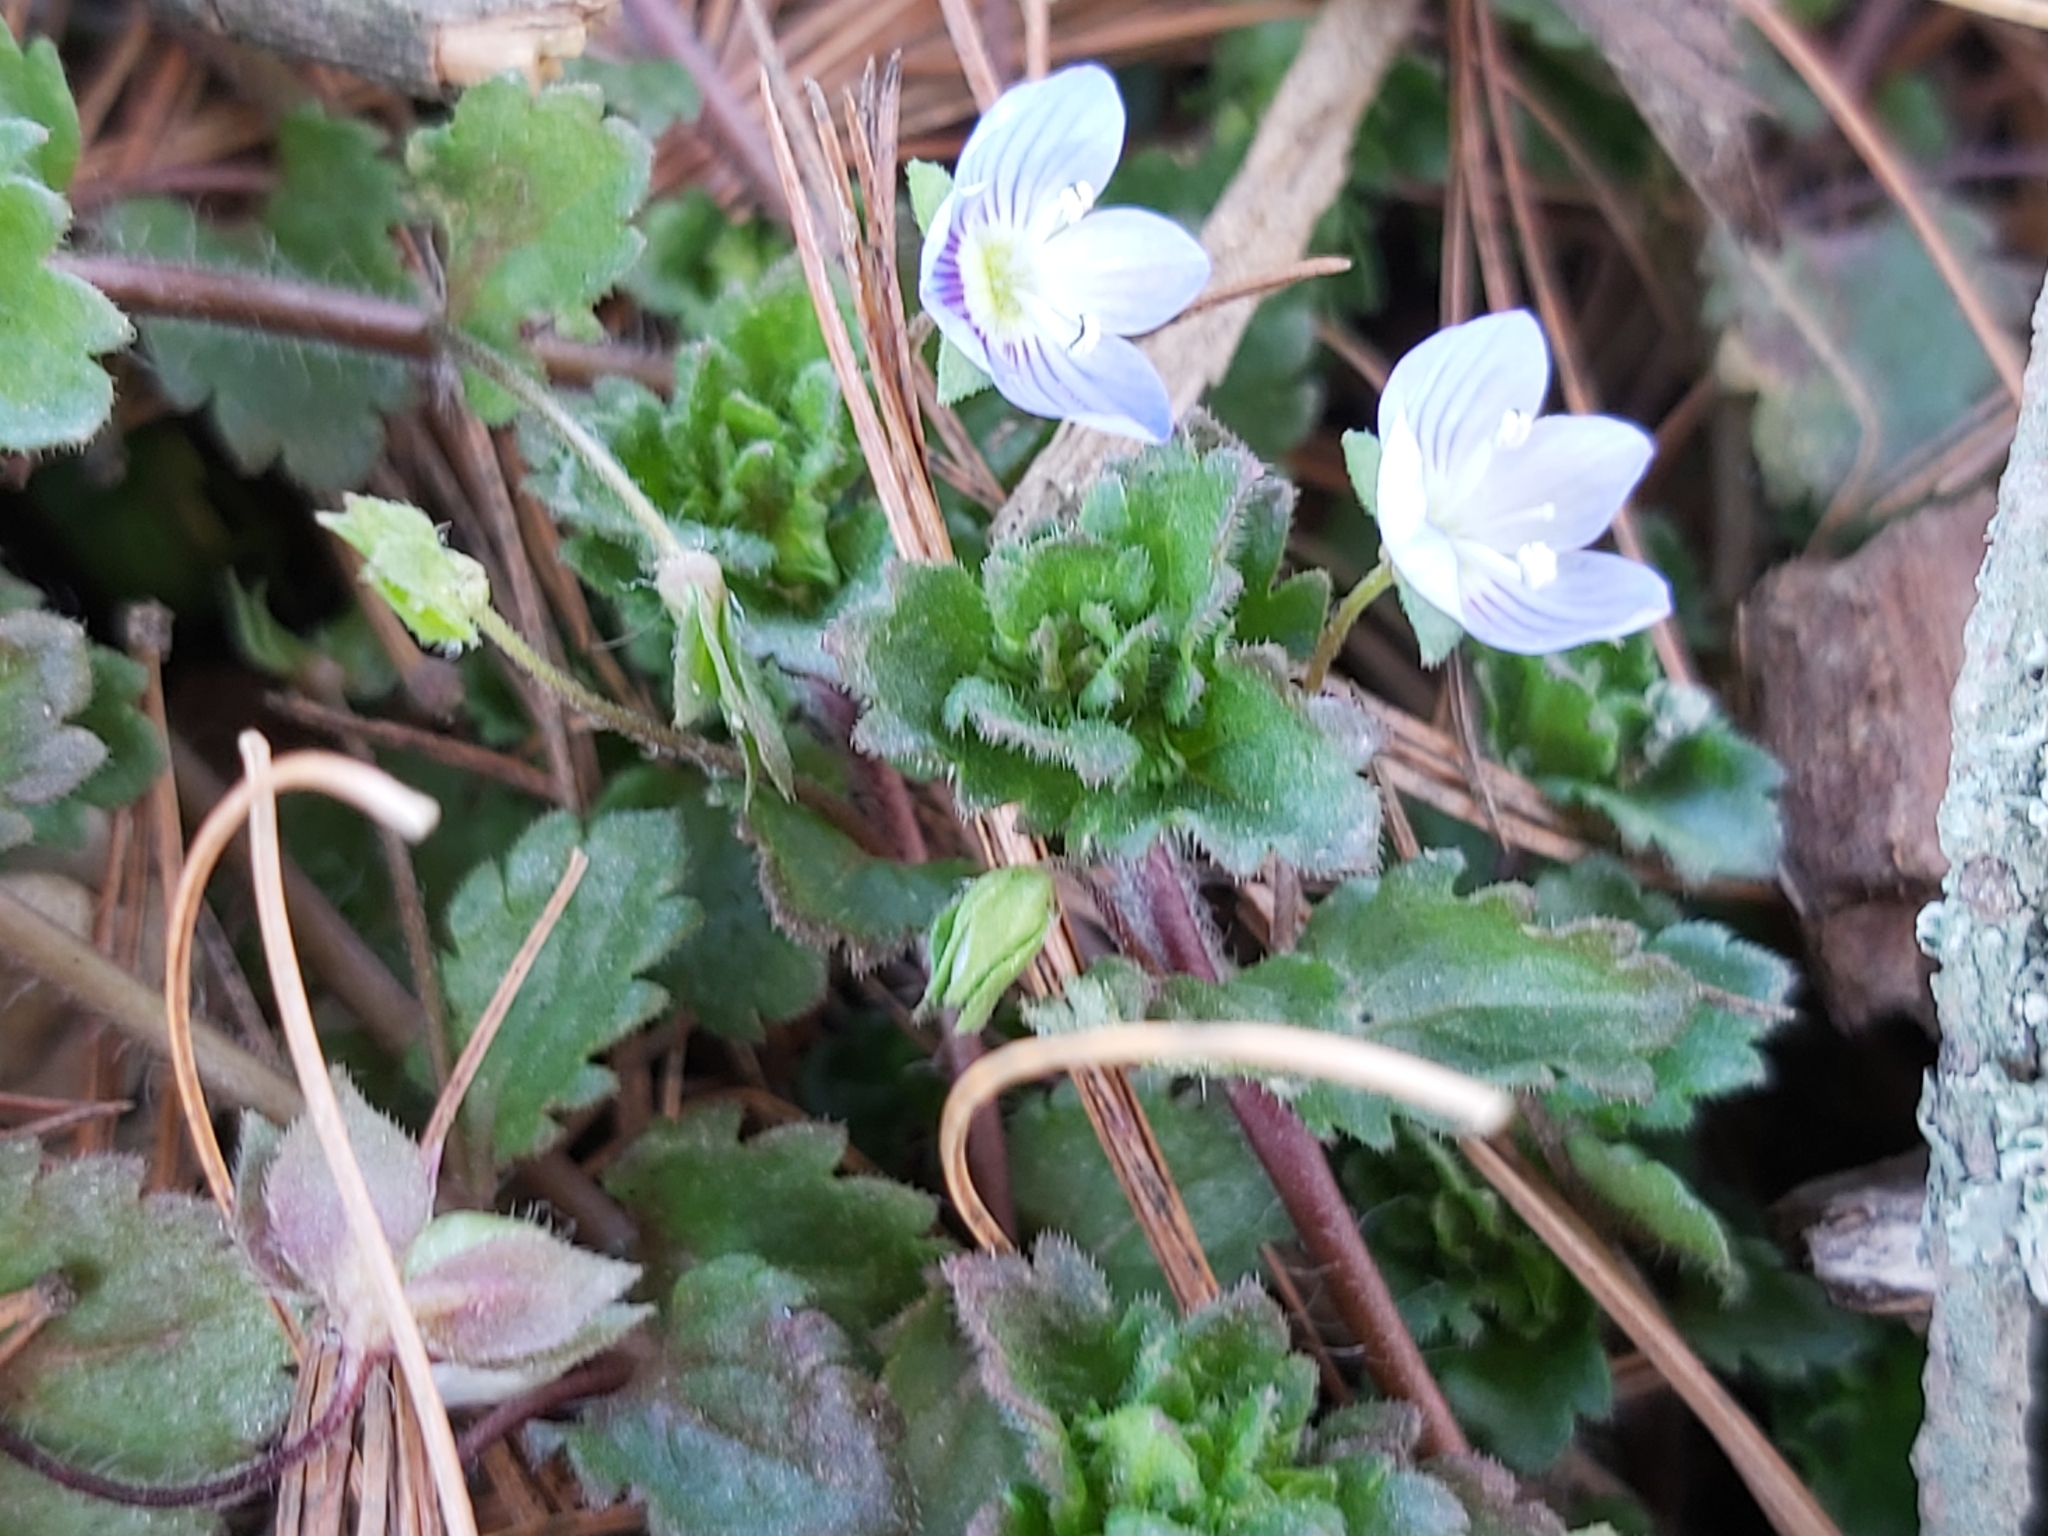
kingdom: Plantae
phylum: Tracheophyta
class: Magnoliopsida
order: Lamiales
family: Plantaginaceae
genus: Veronica
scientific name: Veronica persica
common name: Common field-speedwell
